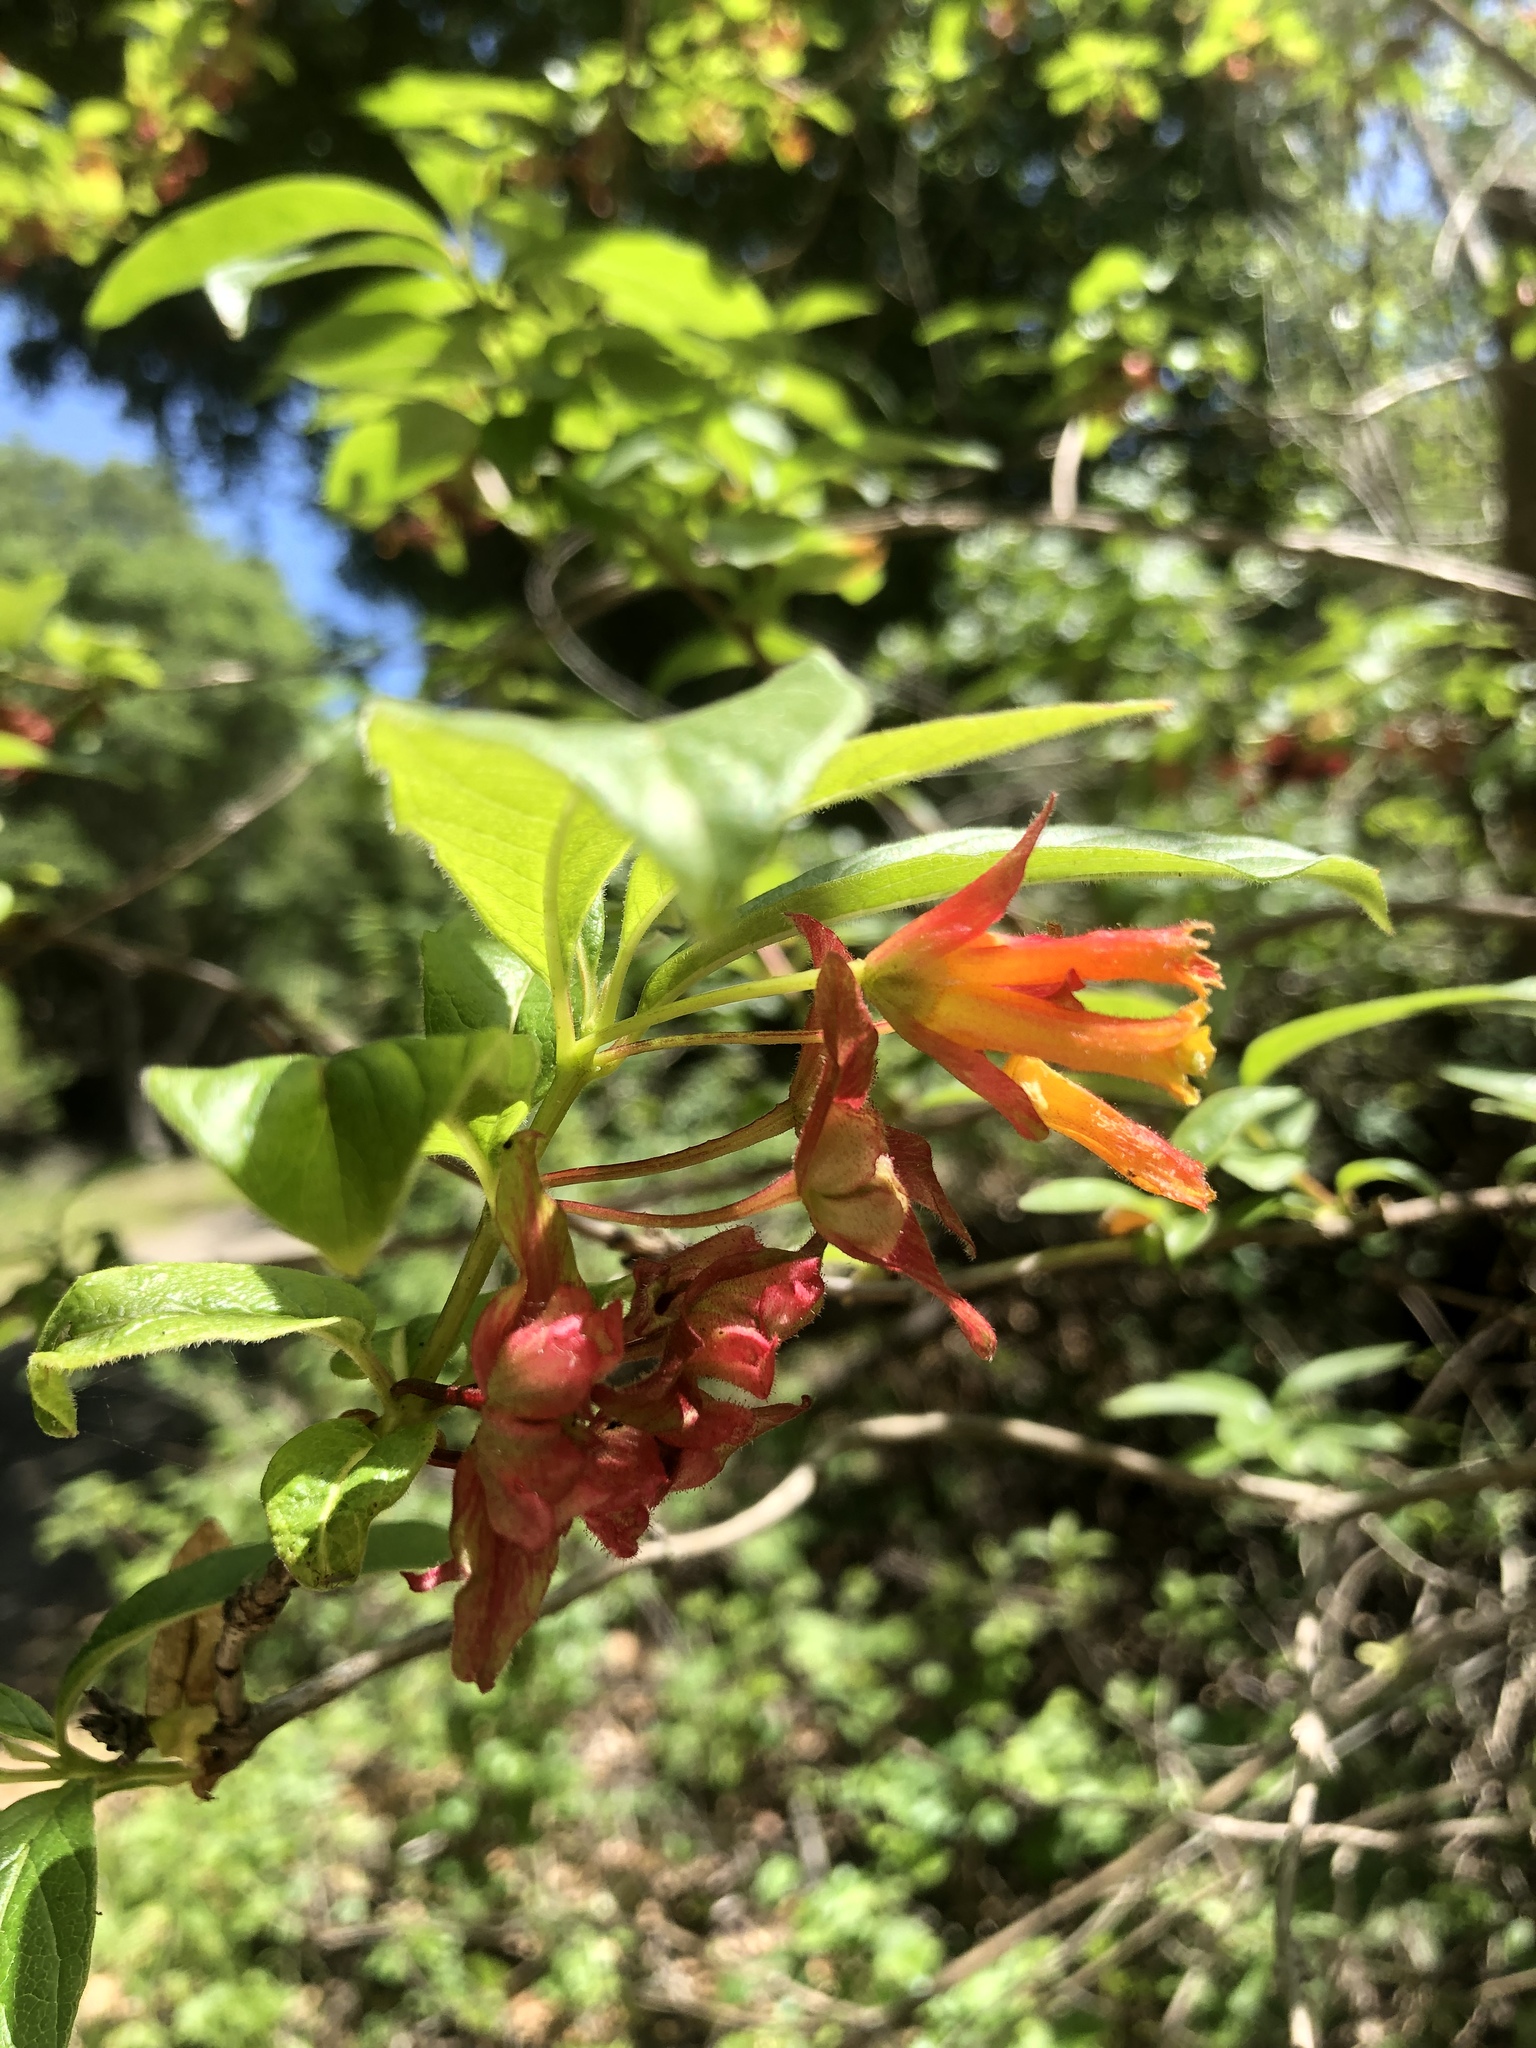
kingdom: Plantae
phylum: Tracheophyta
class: Magnoliopsida
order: Dipsacales
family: Caprifoliaceae
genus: Lonicera
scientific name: Lonicera involucrata
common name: Californian honeysuckle
